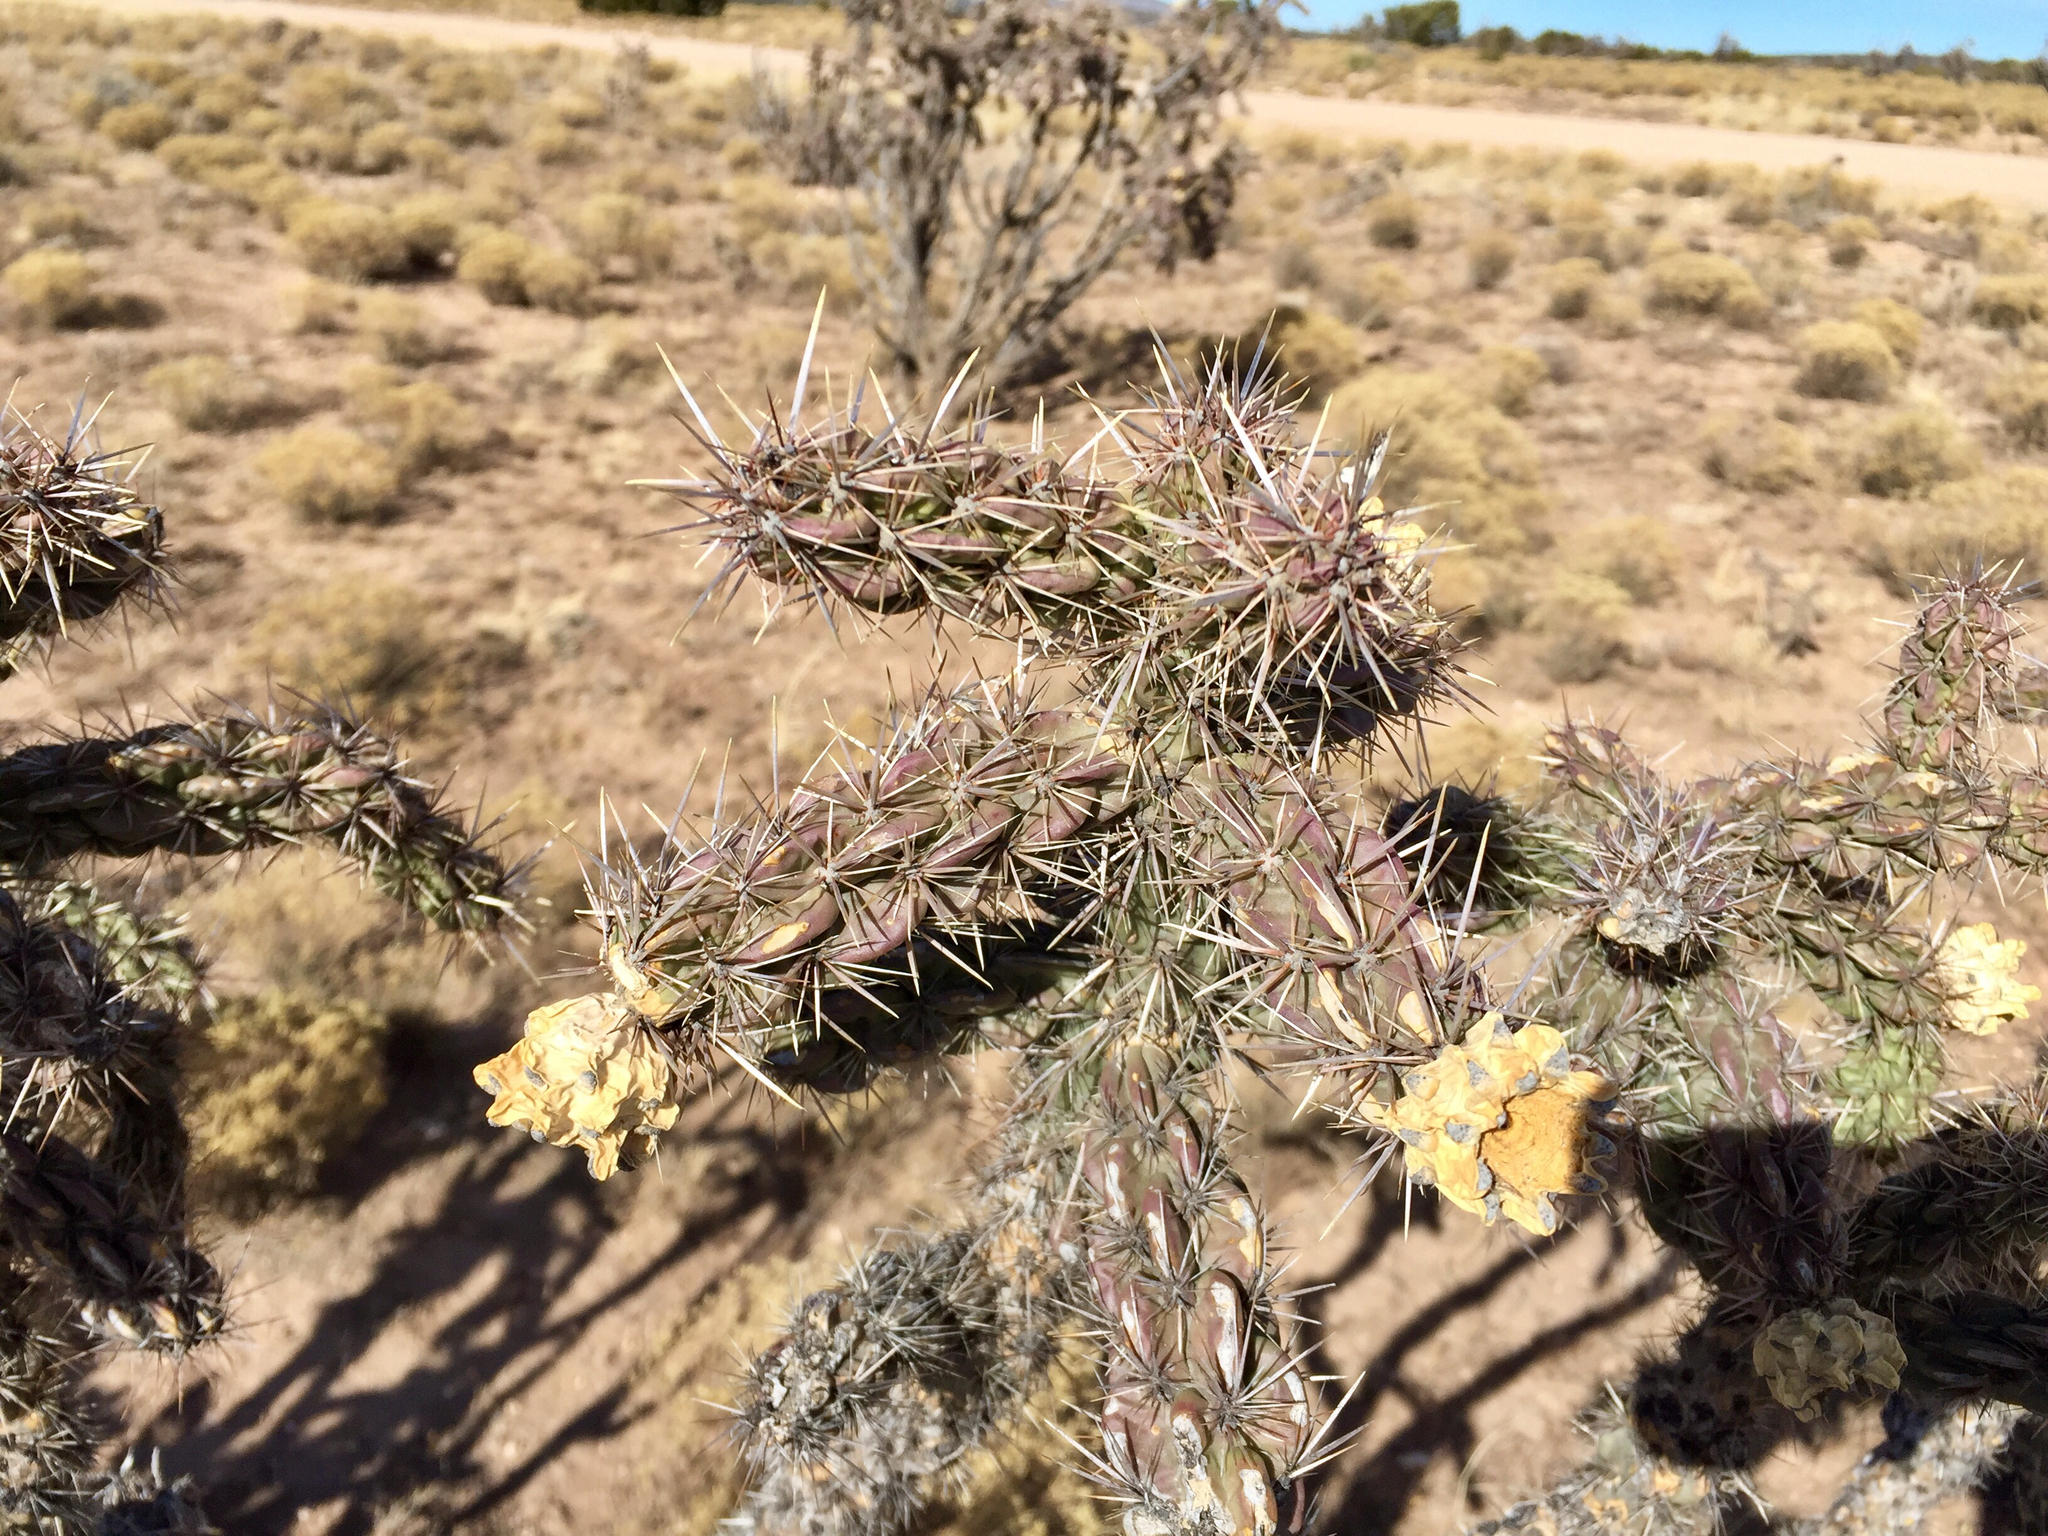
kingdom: Plantae
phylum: Tracheophyta
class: Magnoliopsida
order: Caryophyllales
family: Cactaceae
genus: Cylindropuntia
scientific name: Cylindropuntia imbricata
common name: Candelabrum cactus
